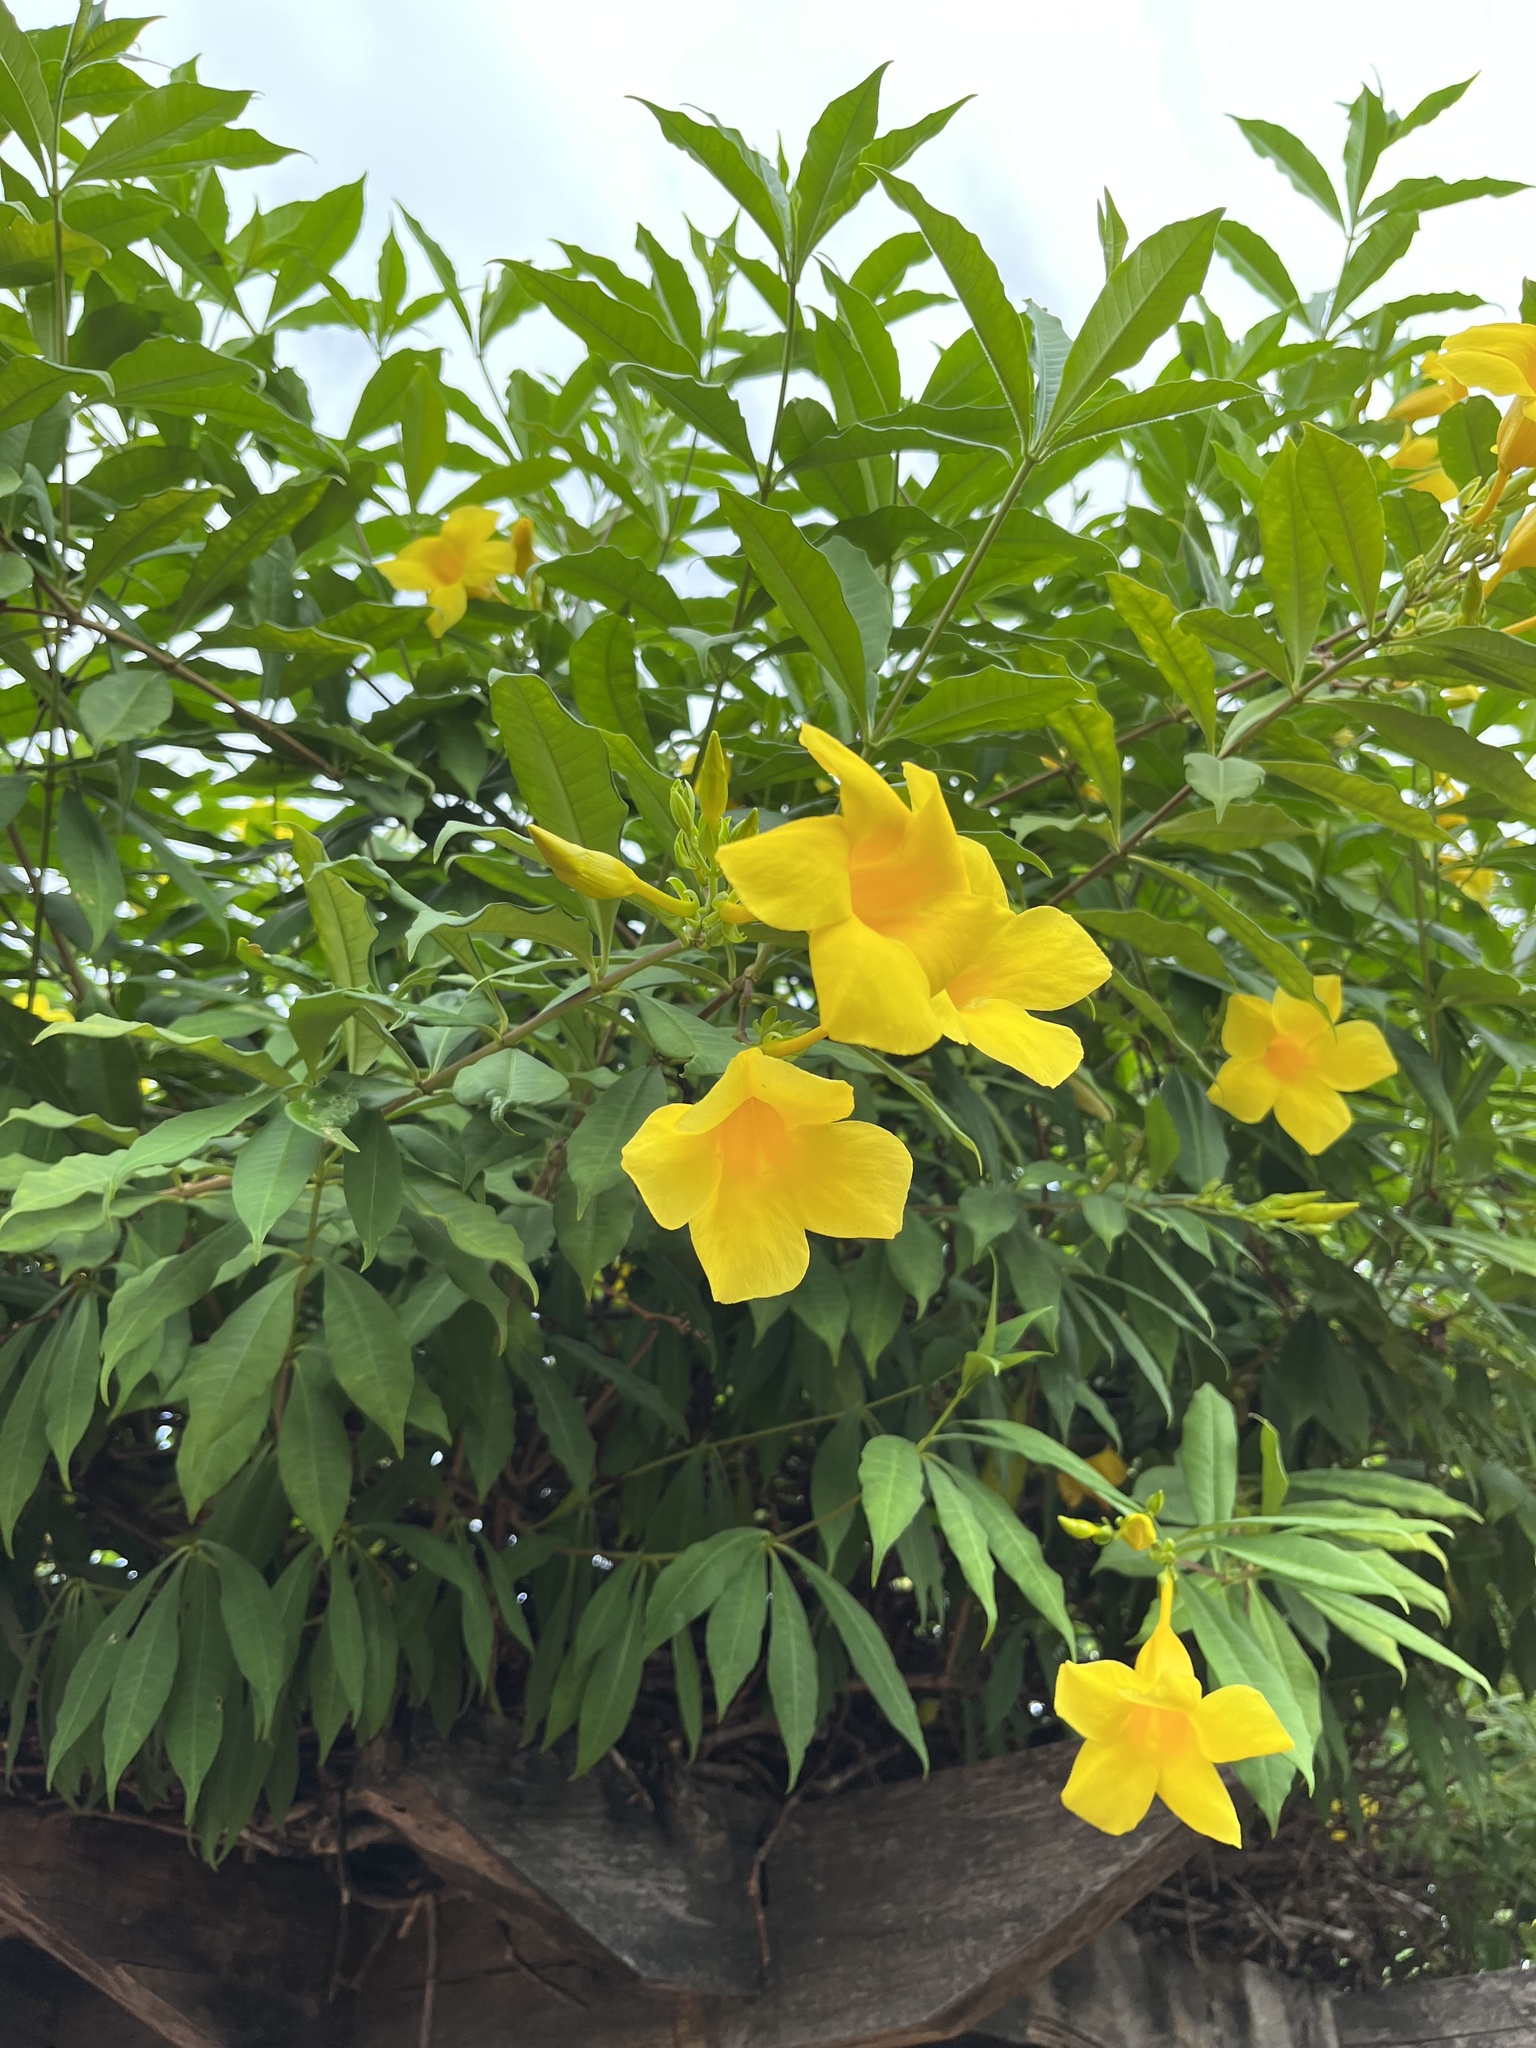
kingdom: Plantae
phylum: Tracheophyta
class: Magnoliopsida
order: Gentianales
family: Apocynaceae
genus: Allamanda
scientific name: Allamanda cathartica
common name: Golden trumpet
